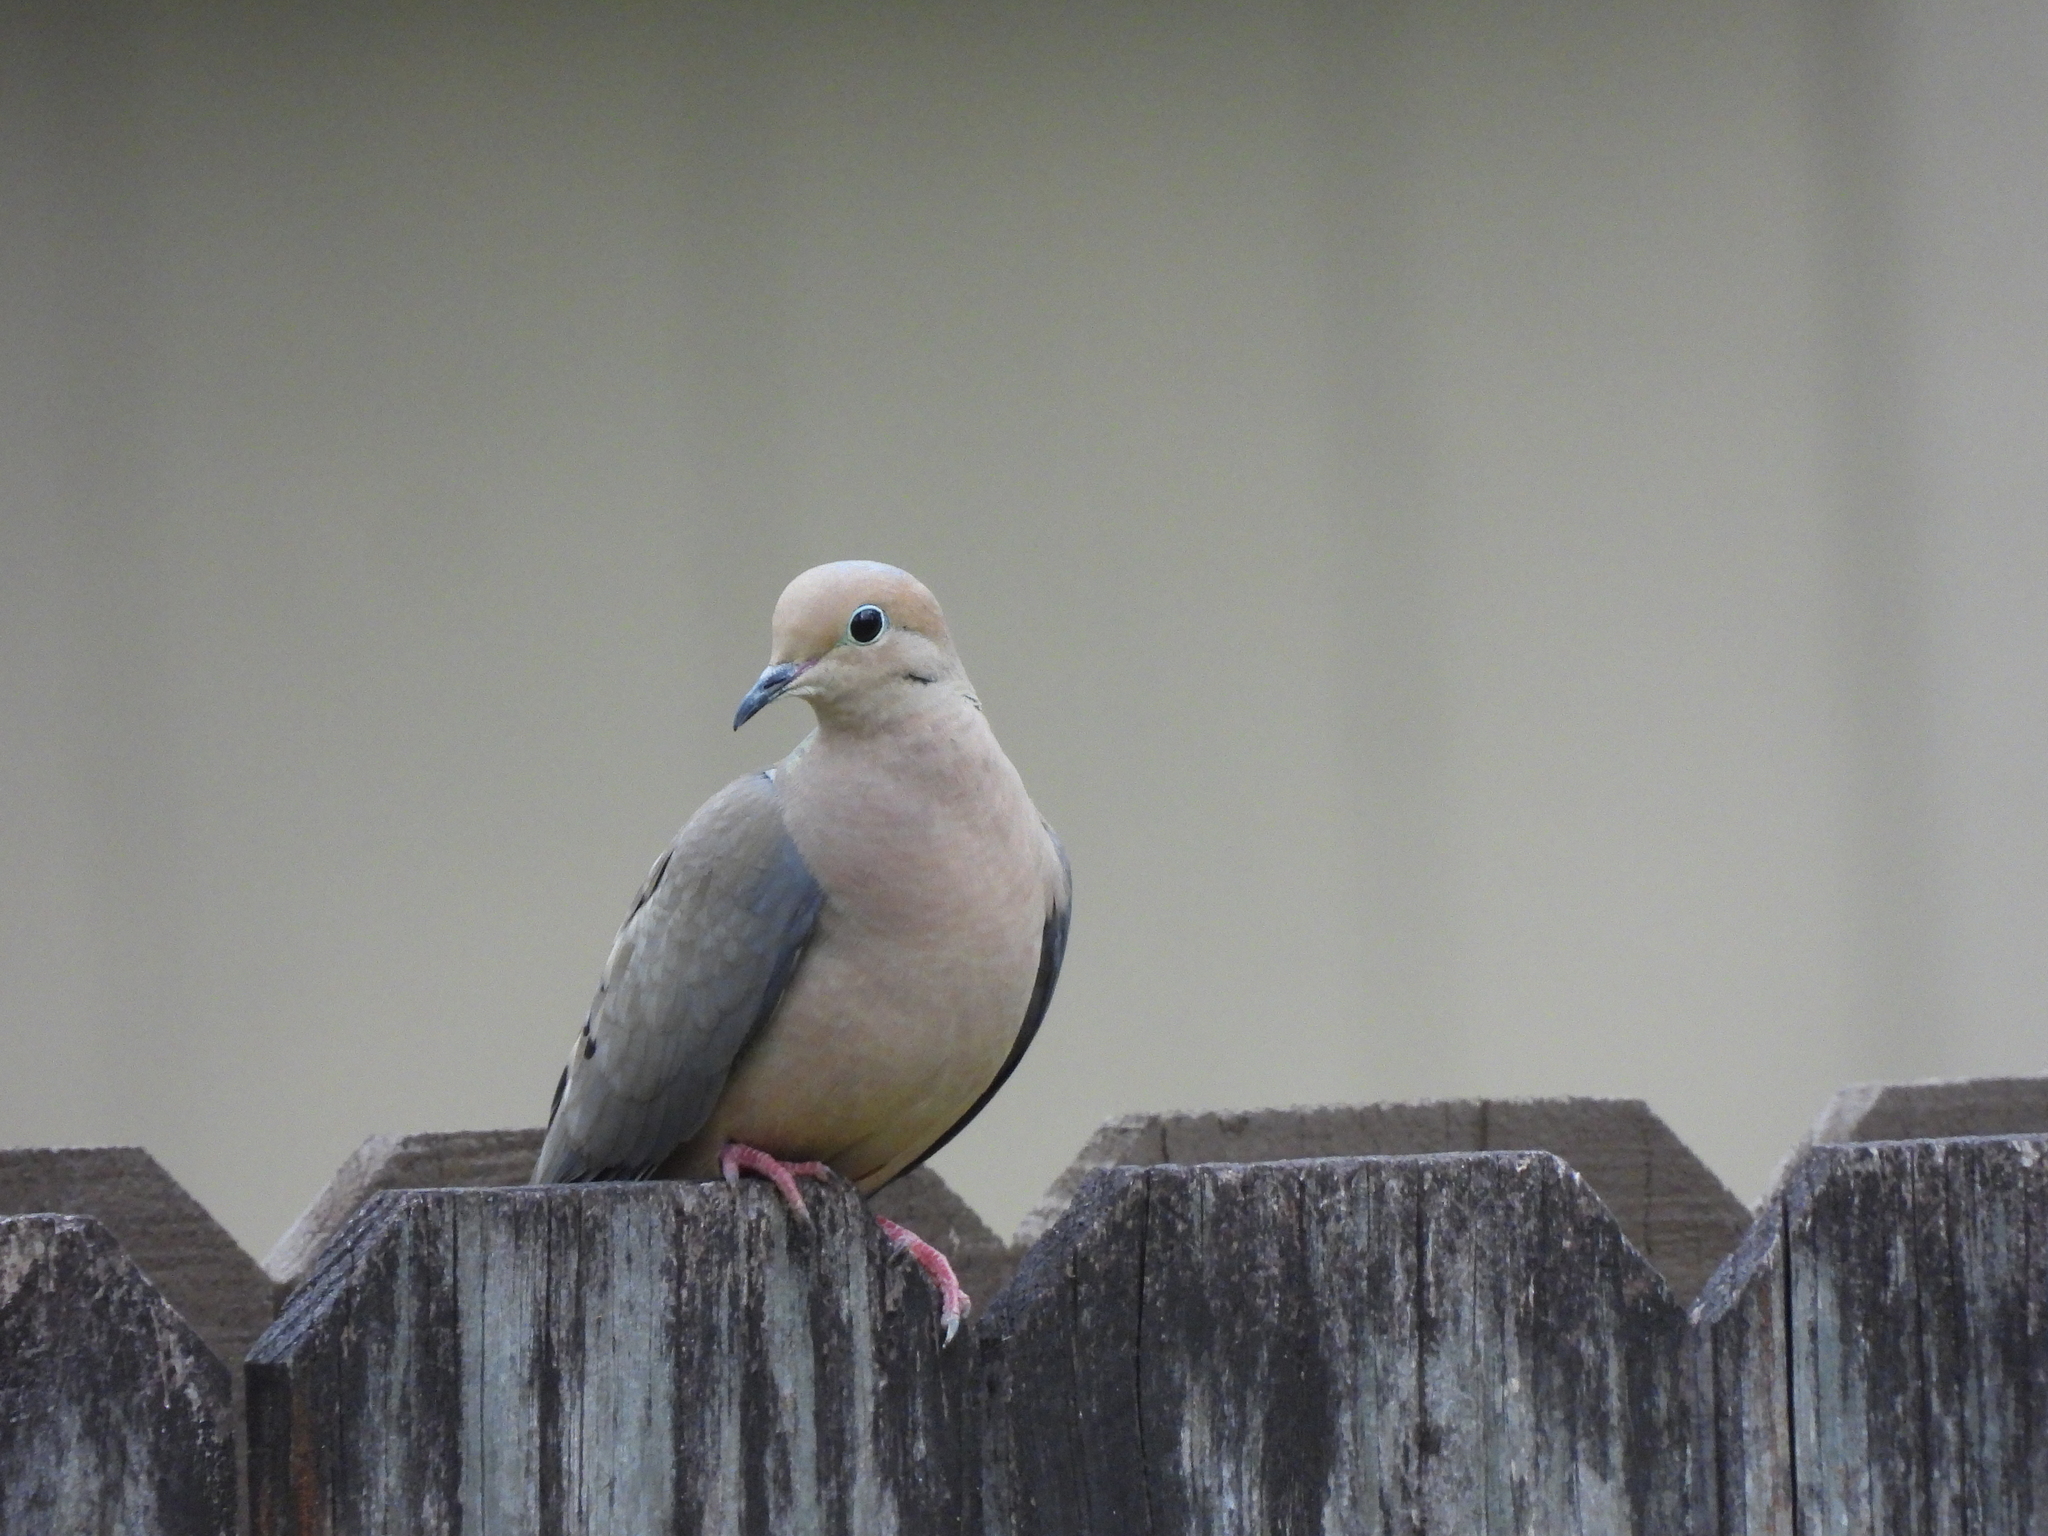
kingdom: Animalia
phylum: Chordata
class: Aves
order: Columbiformes
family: Columbidae
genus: Zenaida
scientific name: Zenaida macroura
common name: Mourning dove
